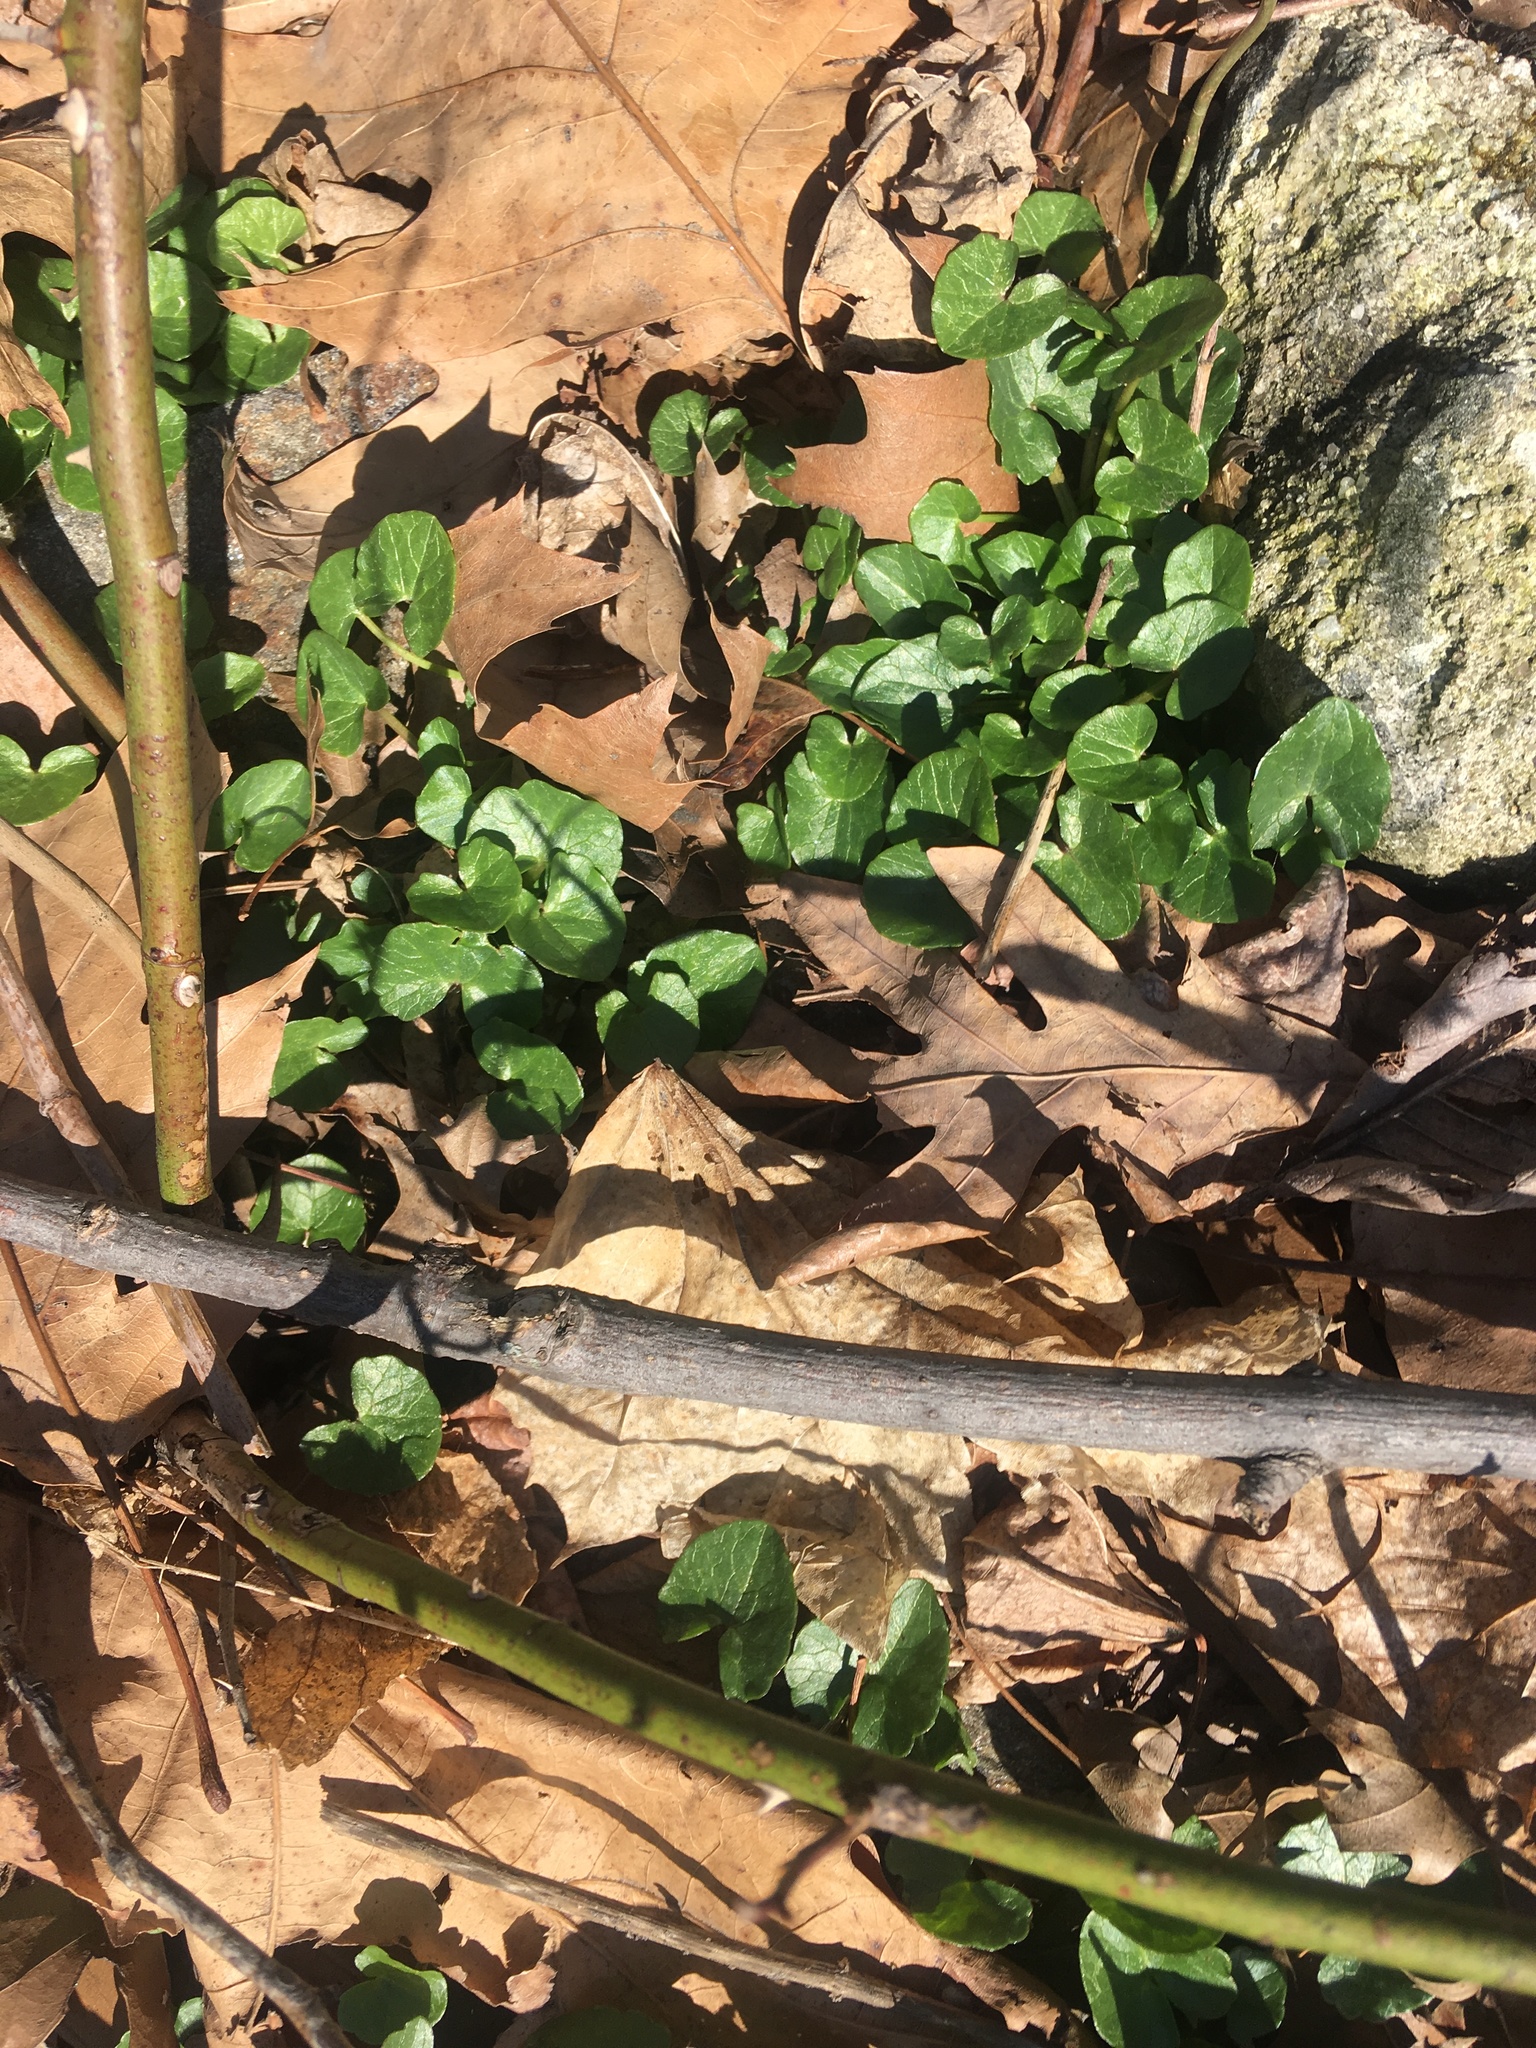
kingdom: Plantae
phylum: Tracheophyta
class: Magnoliopsida
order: Ranunculales
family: Ranunculaceae
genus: Ficaria
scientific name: Ficaria verna
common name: Lesser celandine
